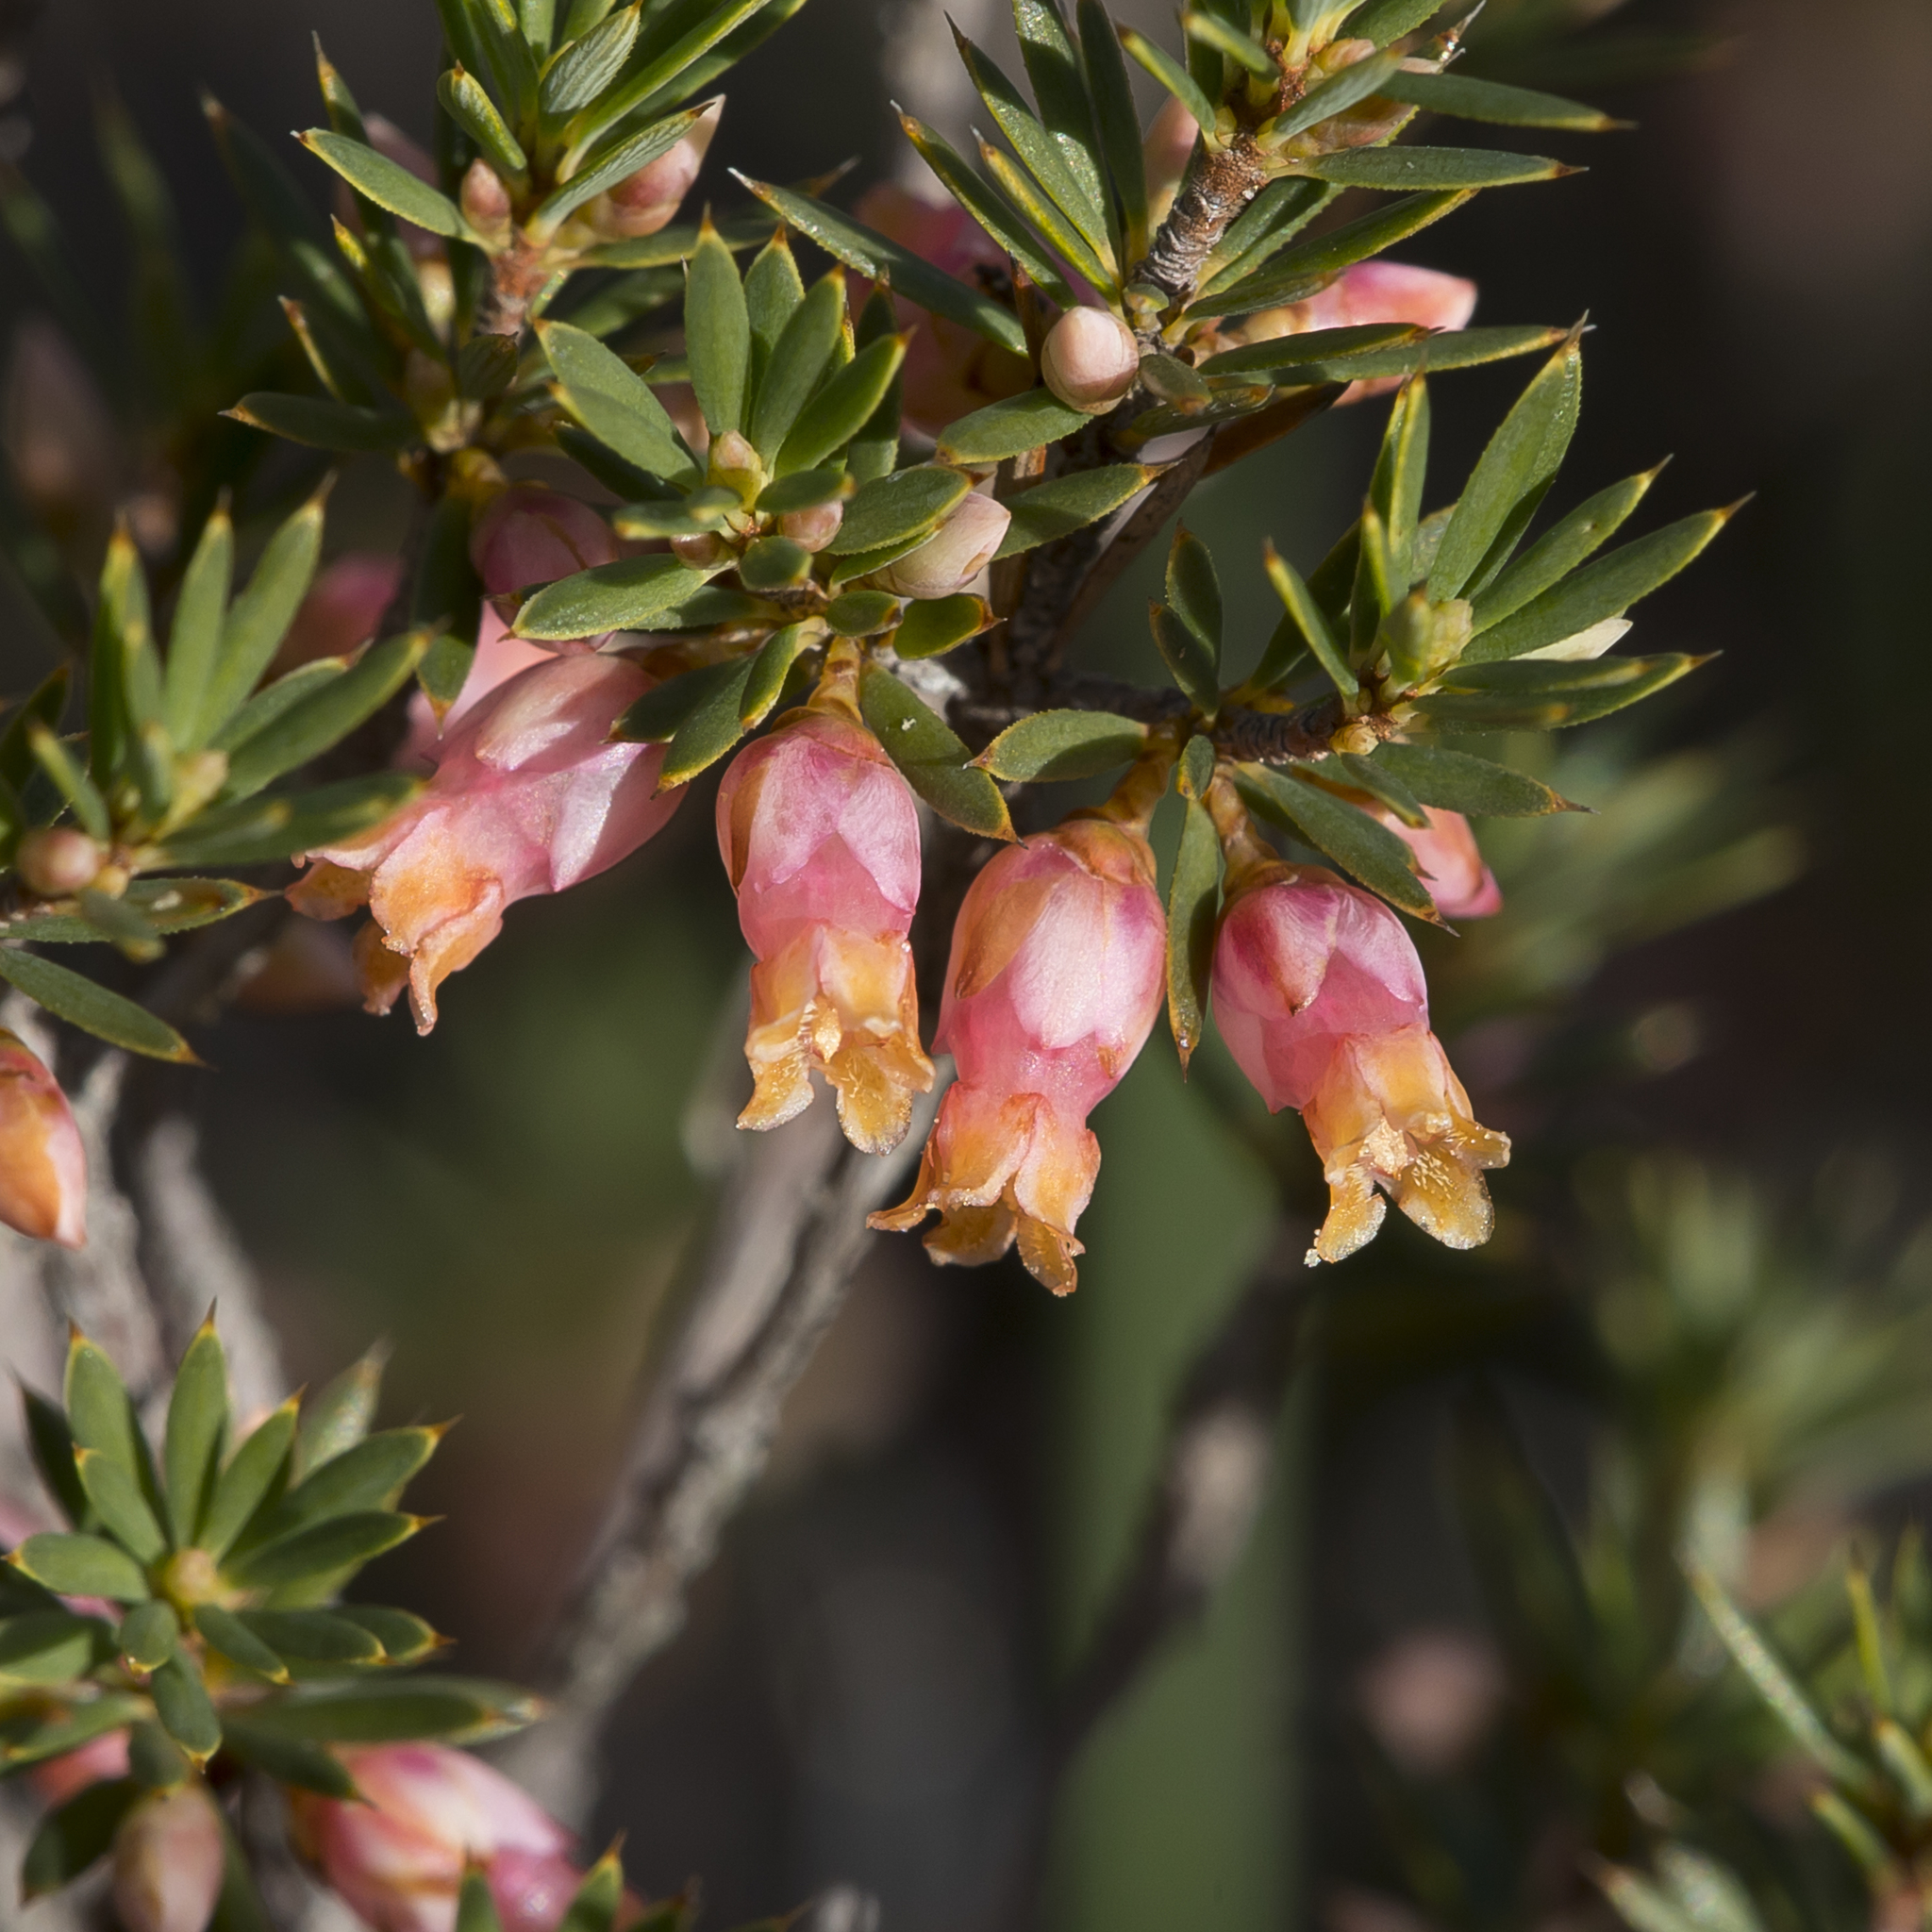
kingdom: Plantae
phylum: Tracheophyta
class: Magnoliopsida
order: Ericales
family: Ericaceae
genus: Brachyloma
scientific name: Brachyloma ericoides
